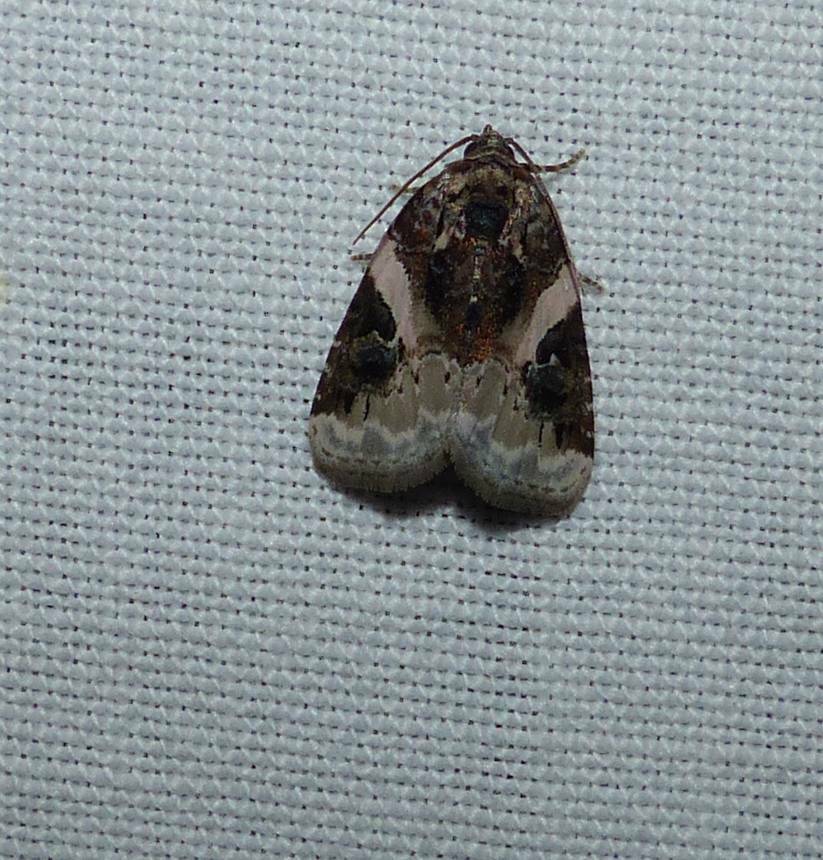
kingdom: Animalia
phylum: Arthropoda
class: Insecta
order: Lepidoptera
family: Noctuidae
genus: Pseudeustrotia
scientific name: Pseudeustrotia carneola
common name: Pink-barred lithacodia moth
